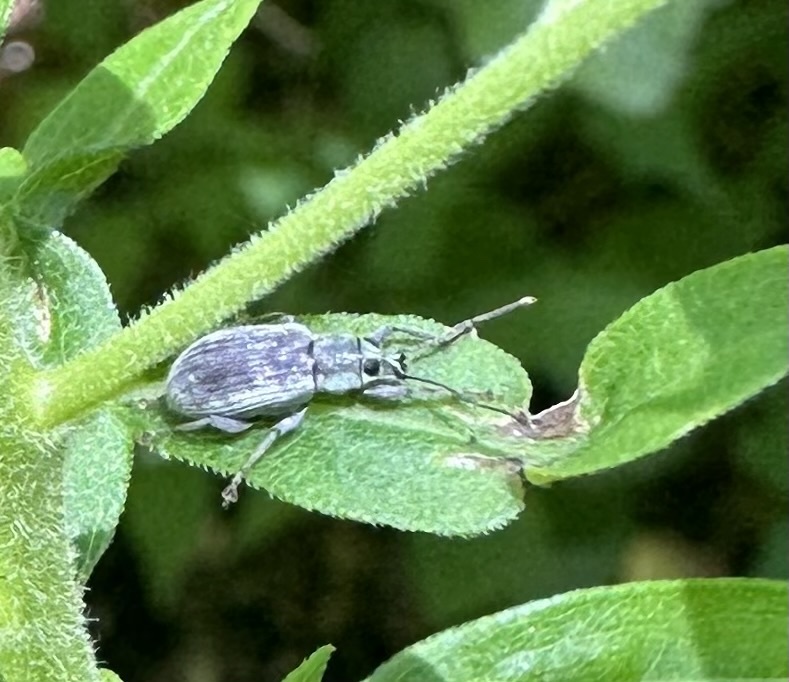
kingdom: Animalia
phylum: Arthropoda
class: Insecta
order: Coleoptera
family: Curculionidae
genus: Cyrtepistomus
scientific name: Cyrtepistomus castaneus
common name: Weevil
